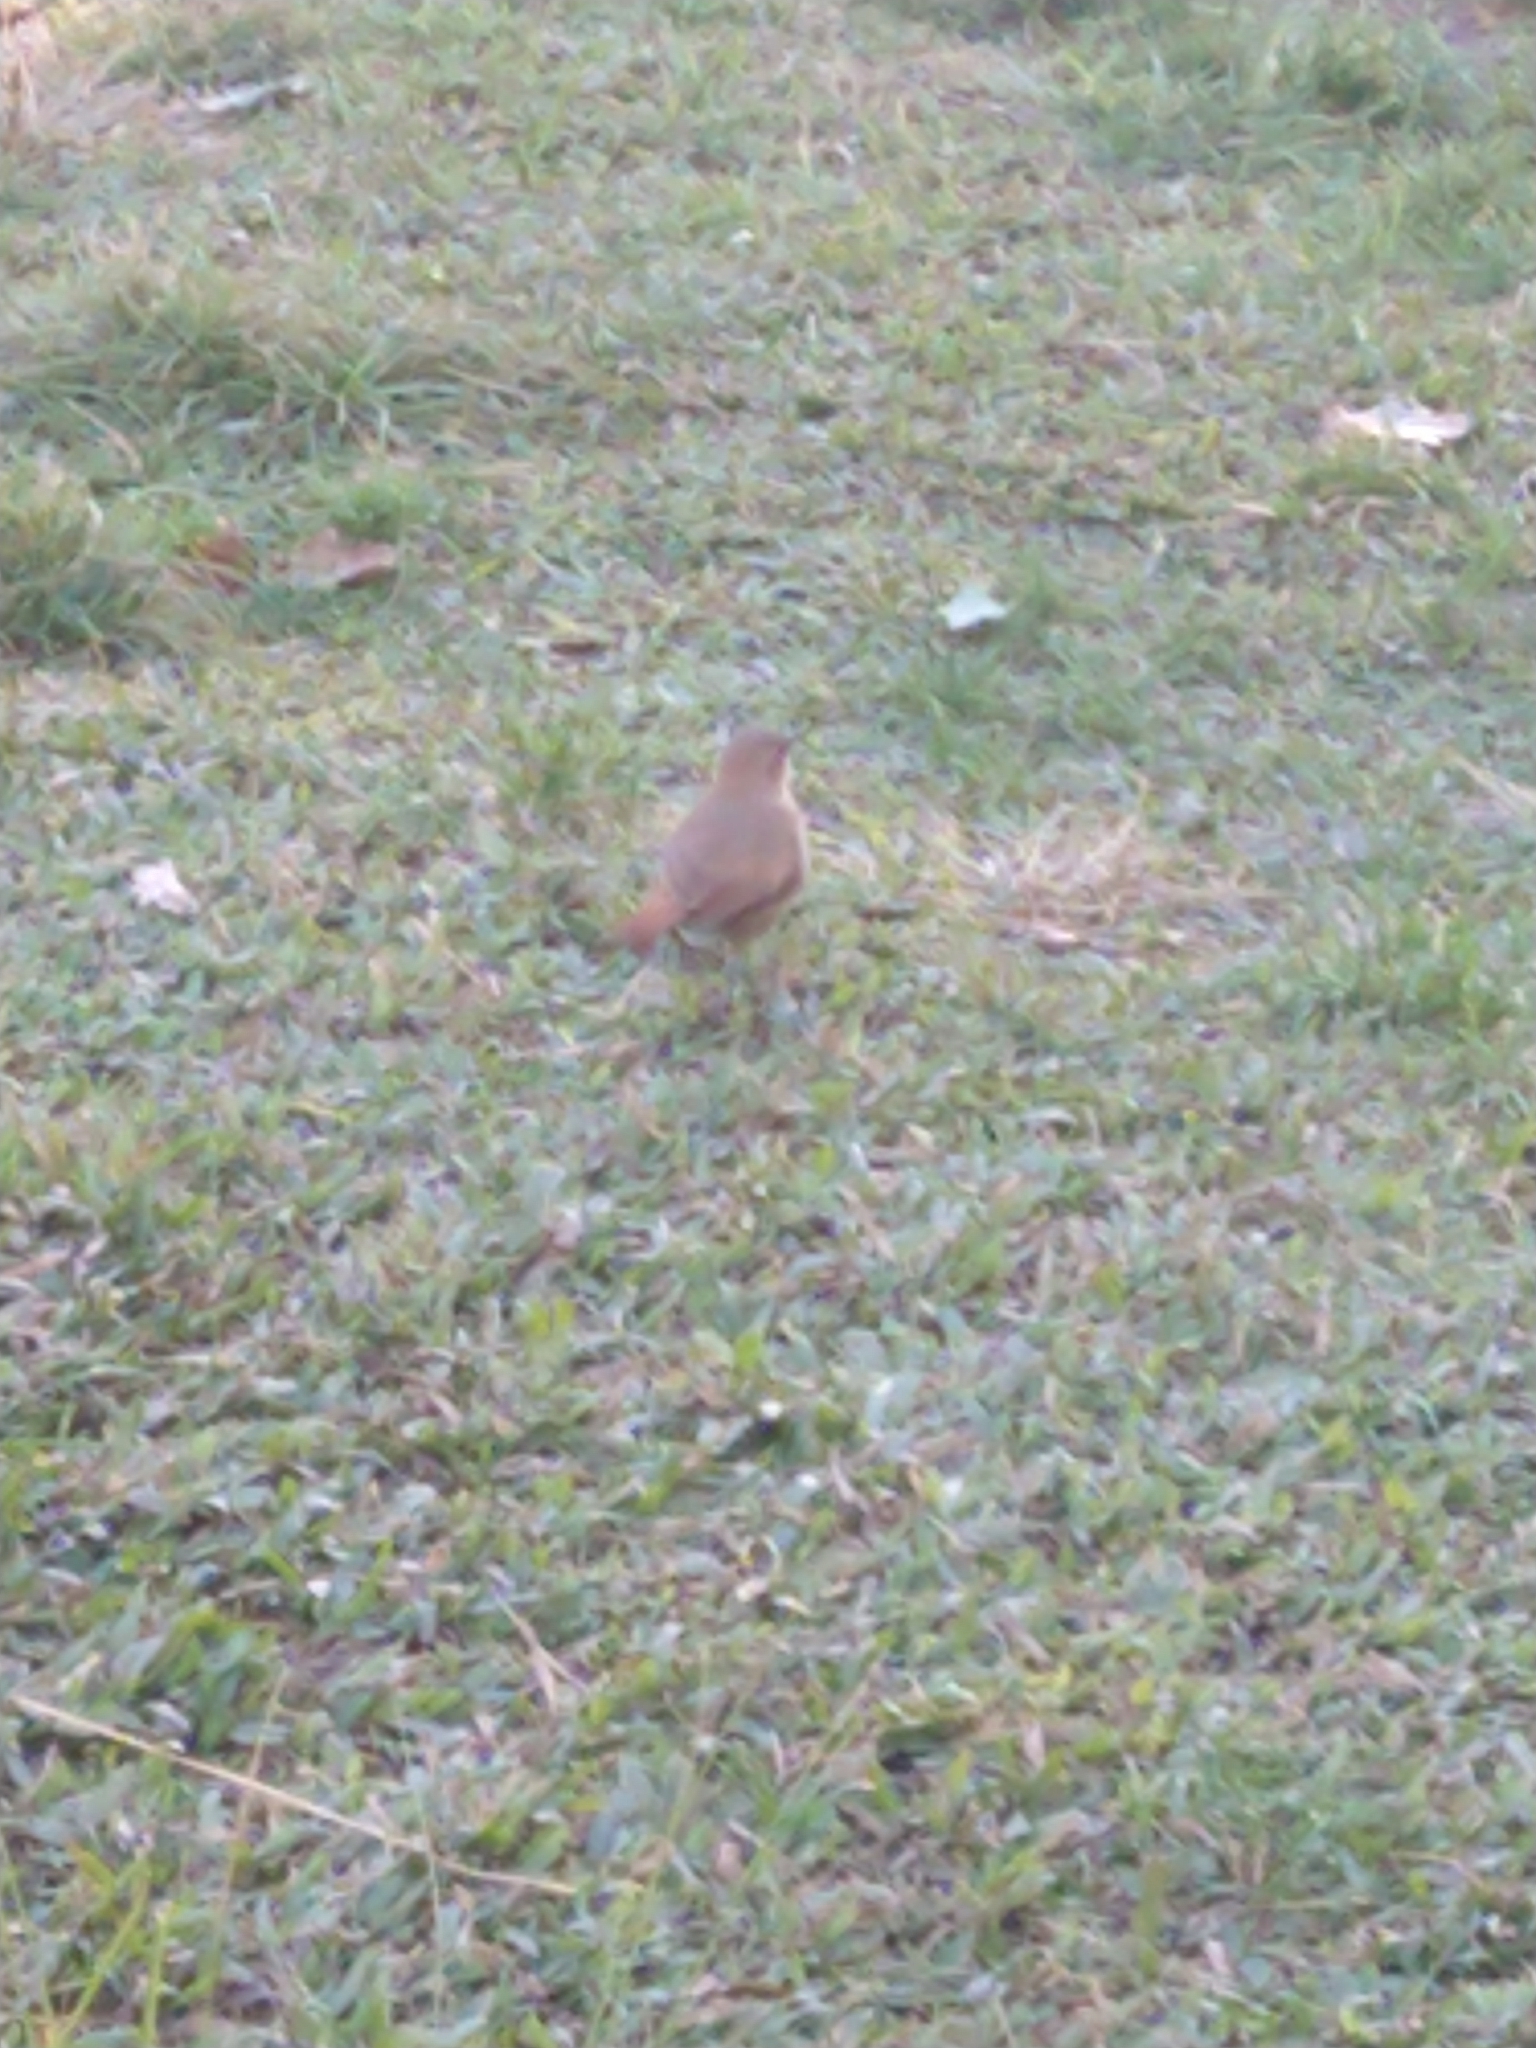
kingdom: Animalia
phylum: Chordata
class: Aves
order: Passeriformes
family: Furnariidae
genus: Furnarius
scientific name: Furnarius rufus
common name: Rufous hornero
